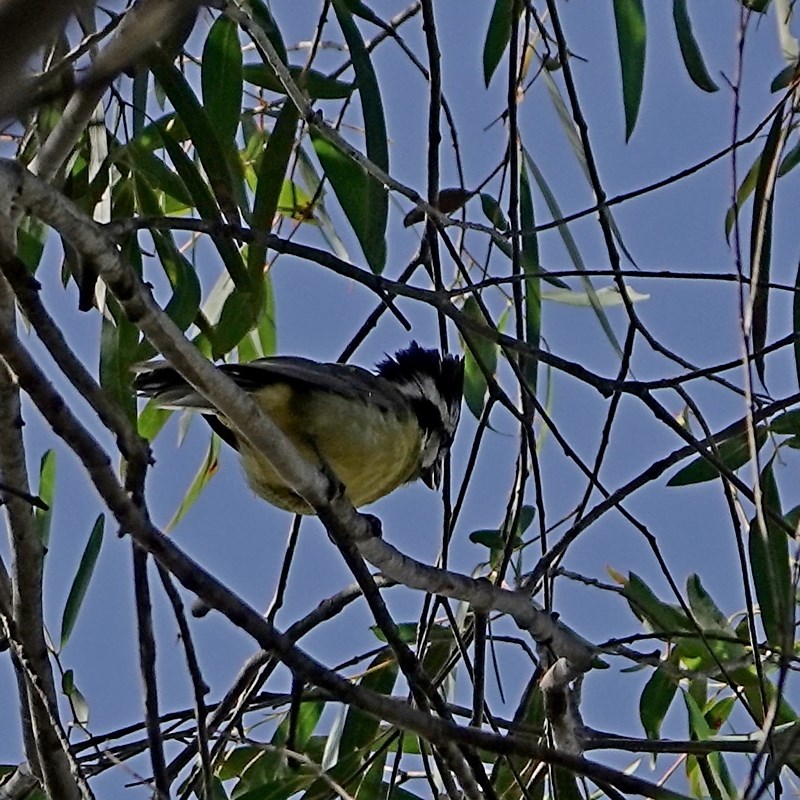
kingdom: Animalia
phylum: Chordata
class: Aves
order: Passeriformes
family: Pachycephalidae
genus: Falcunculus
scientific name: Falcunculus frontatus
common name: Crested shriketit
